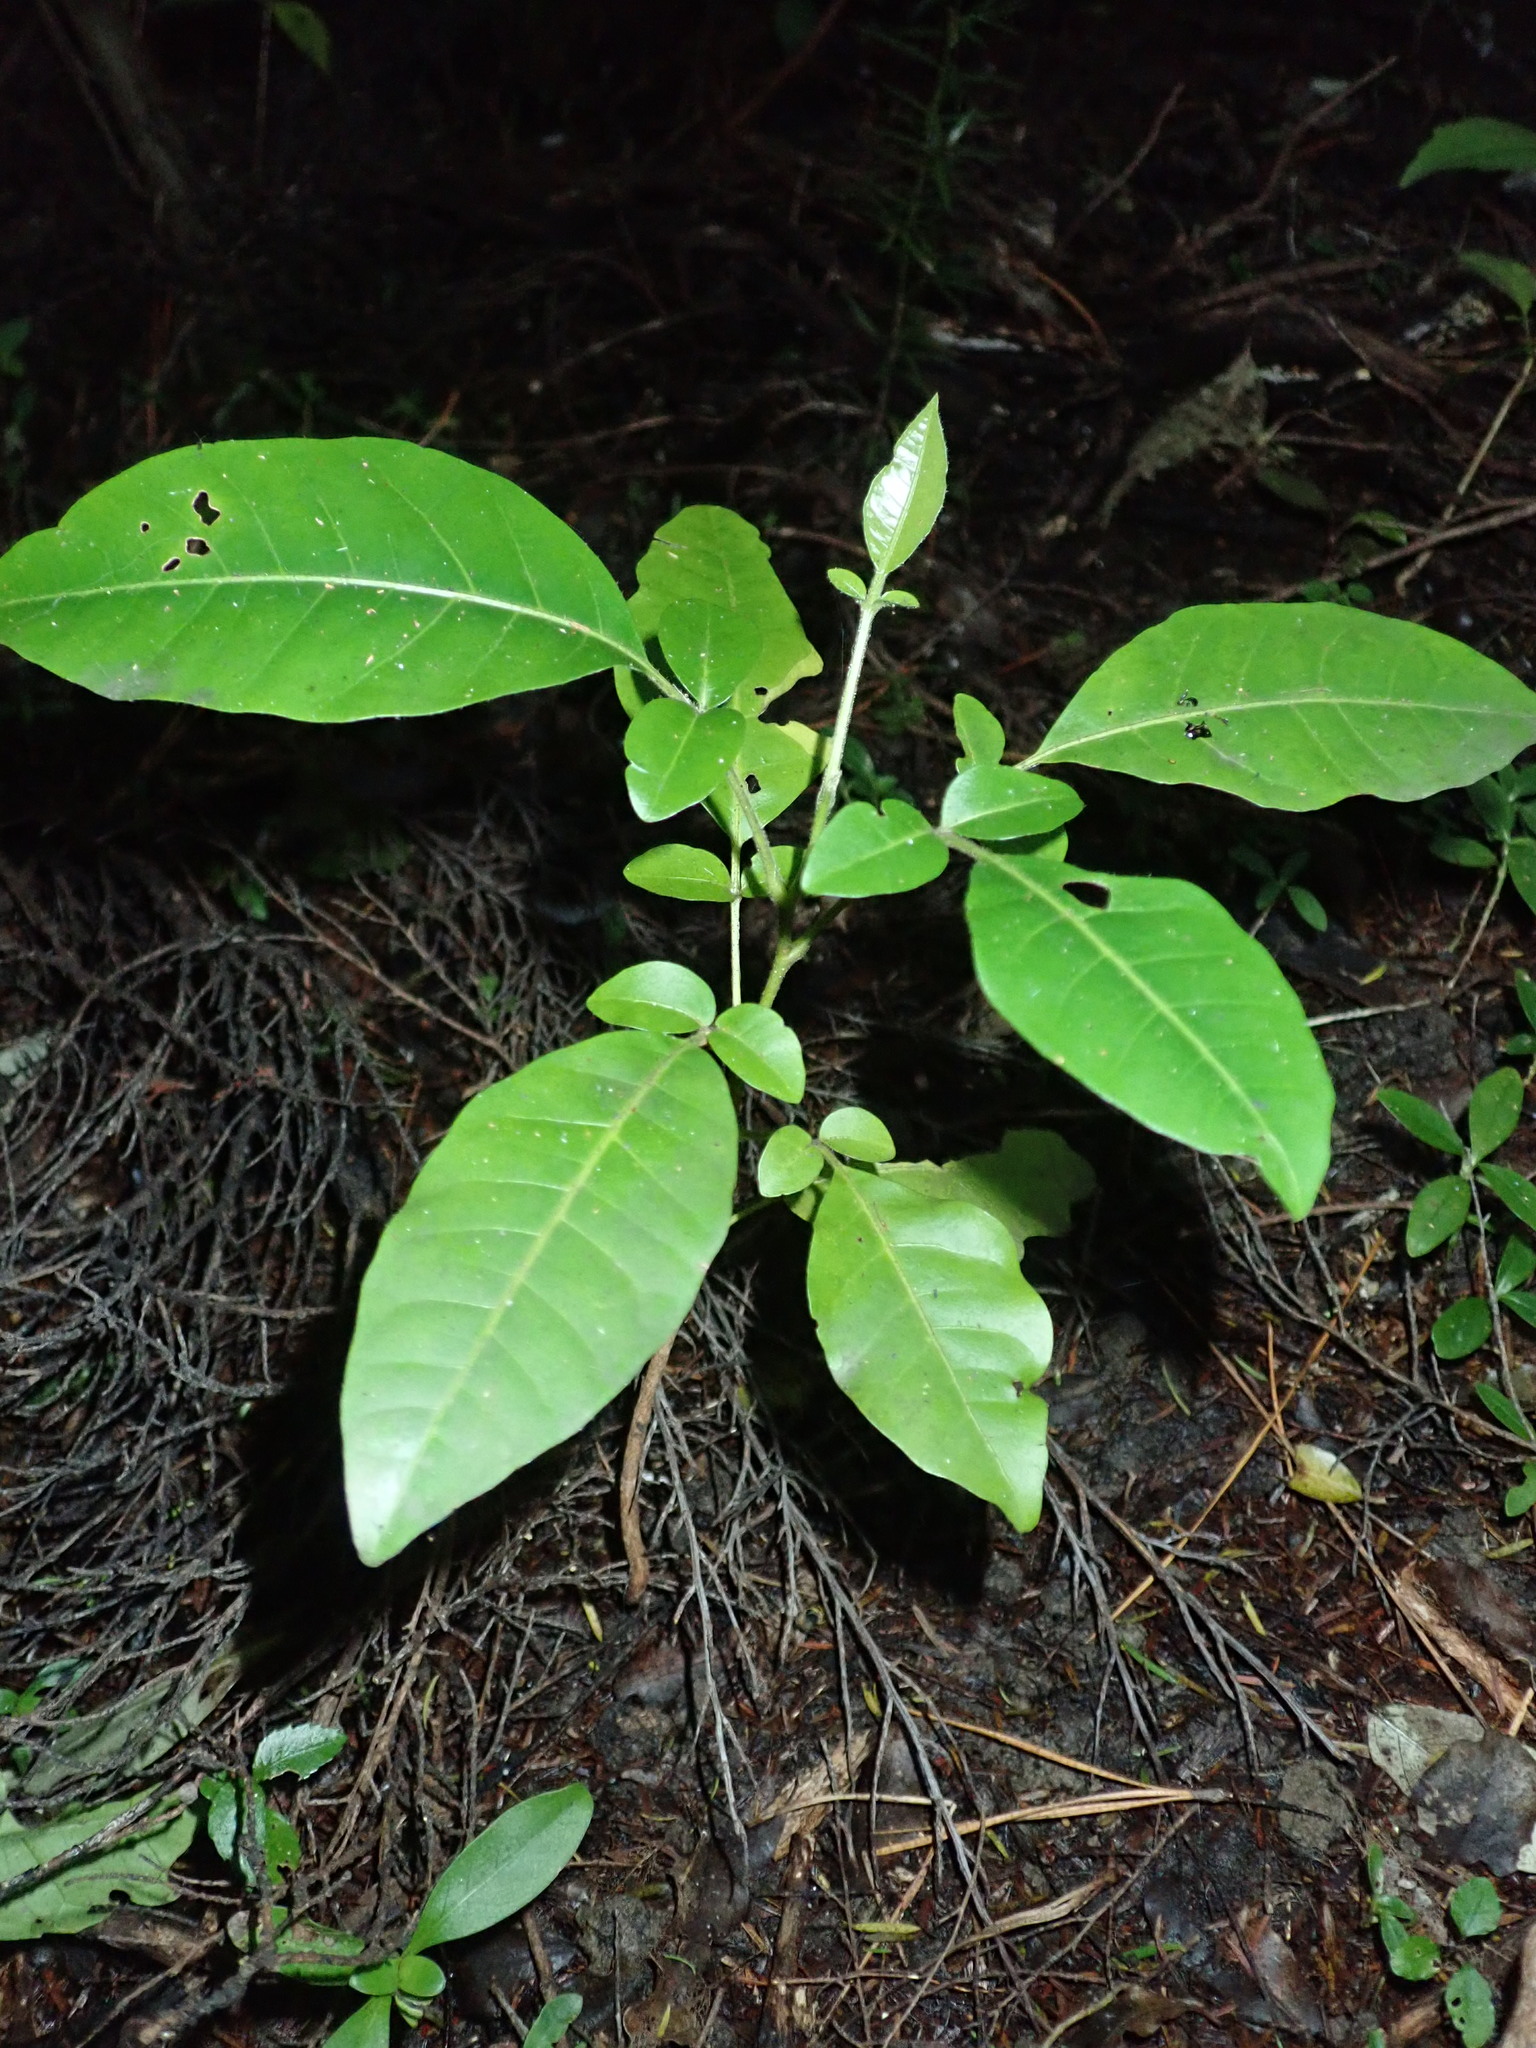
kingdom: Plantae
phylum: Tracheophyta
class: Magnoliopsida
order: Sapindales
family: Meliaceae
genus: Didymocheton
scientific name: Didymocheton spectabilis
